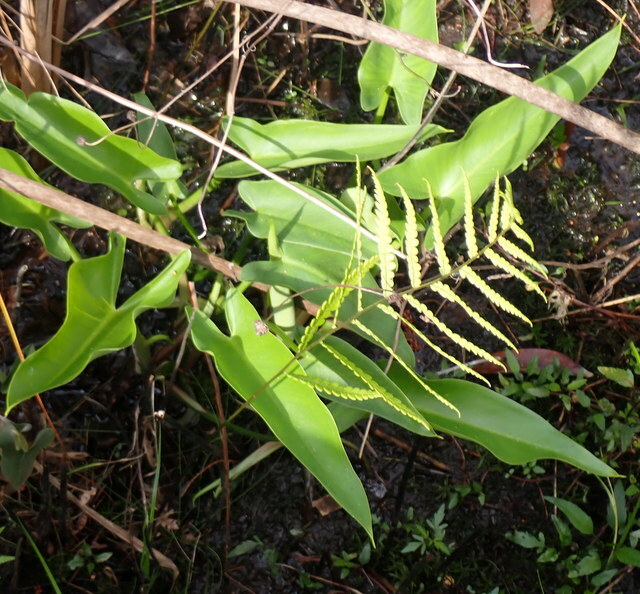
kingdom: Plantae
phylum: Tracheophyta
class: Liliopsida
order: Alismatales
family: Araceae
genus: Peltandra
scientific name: Peltandra virginica
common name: Arrow arum
